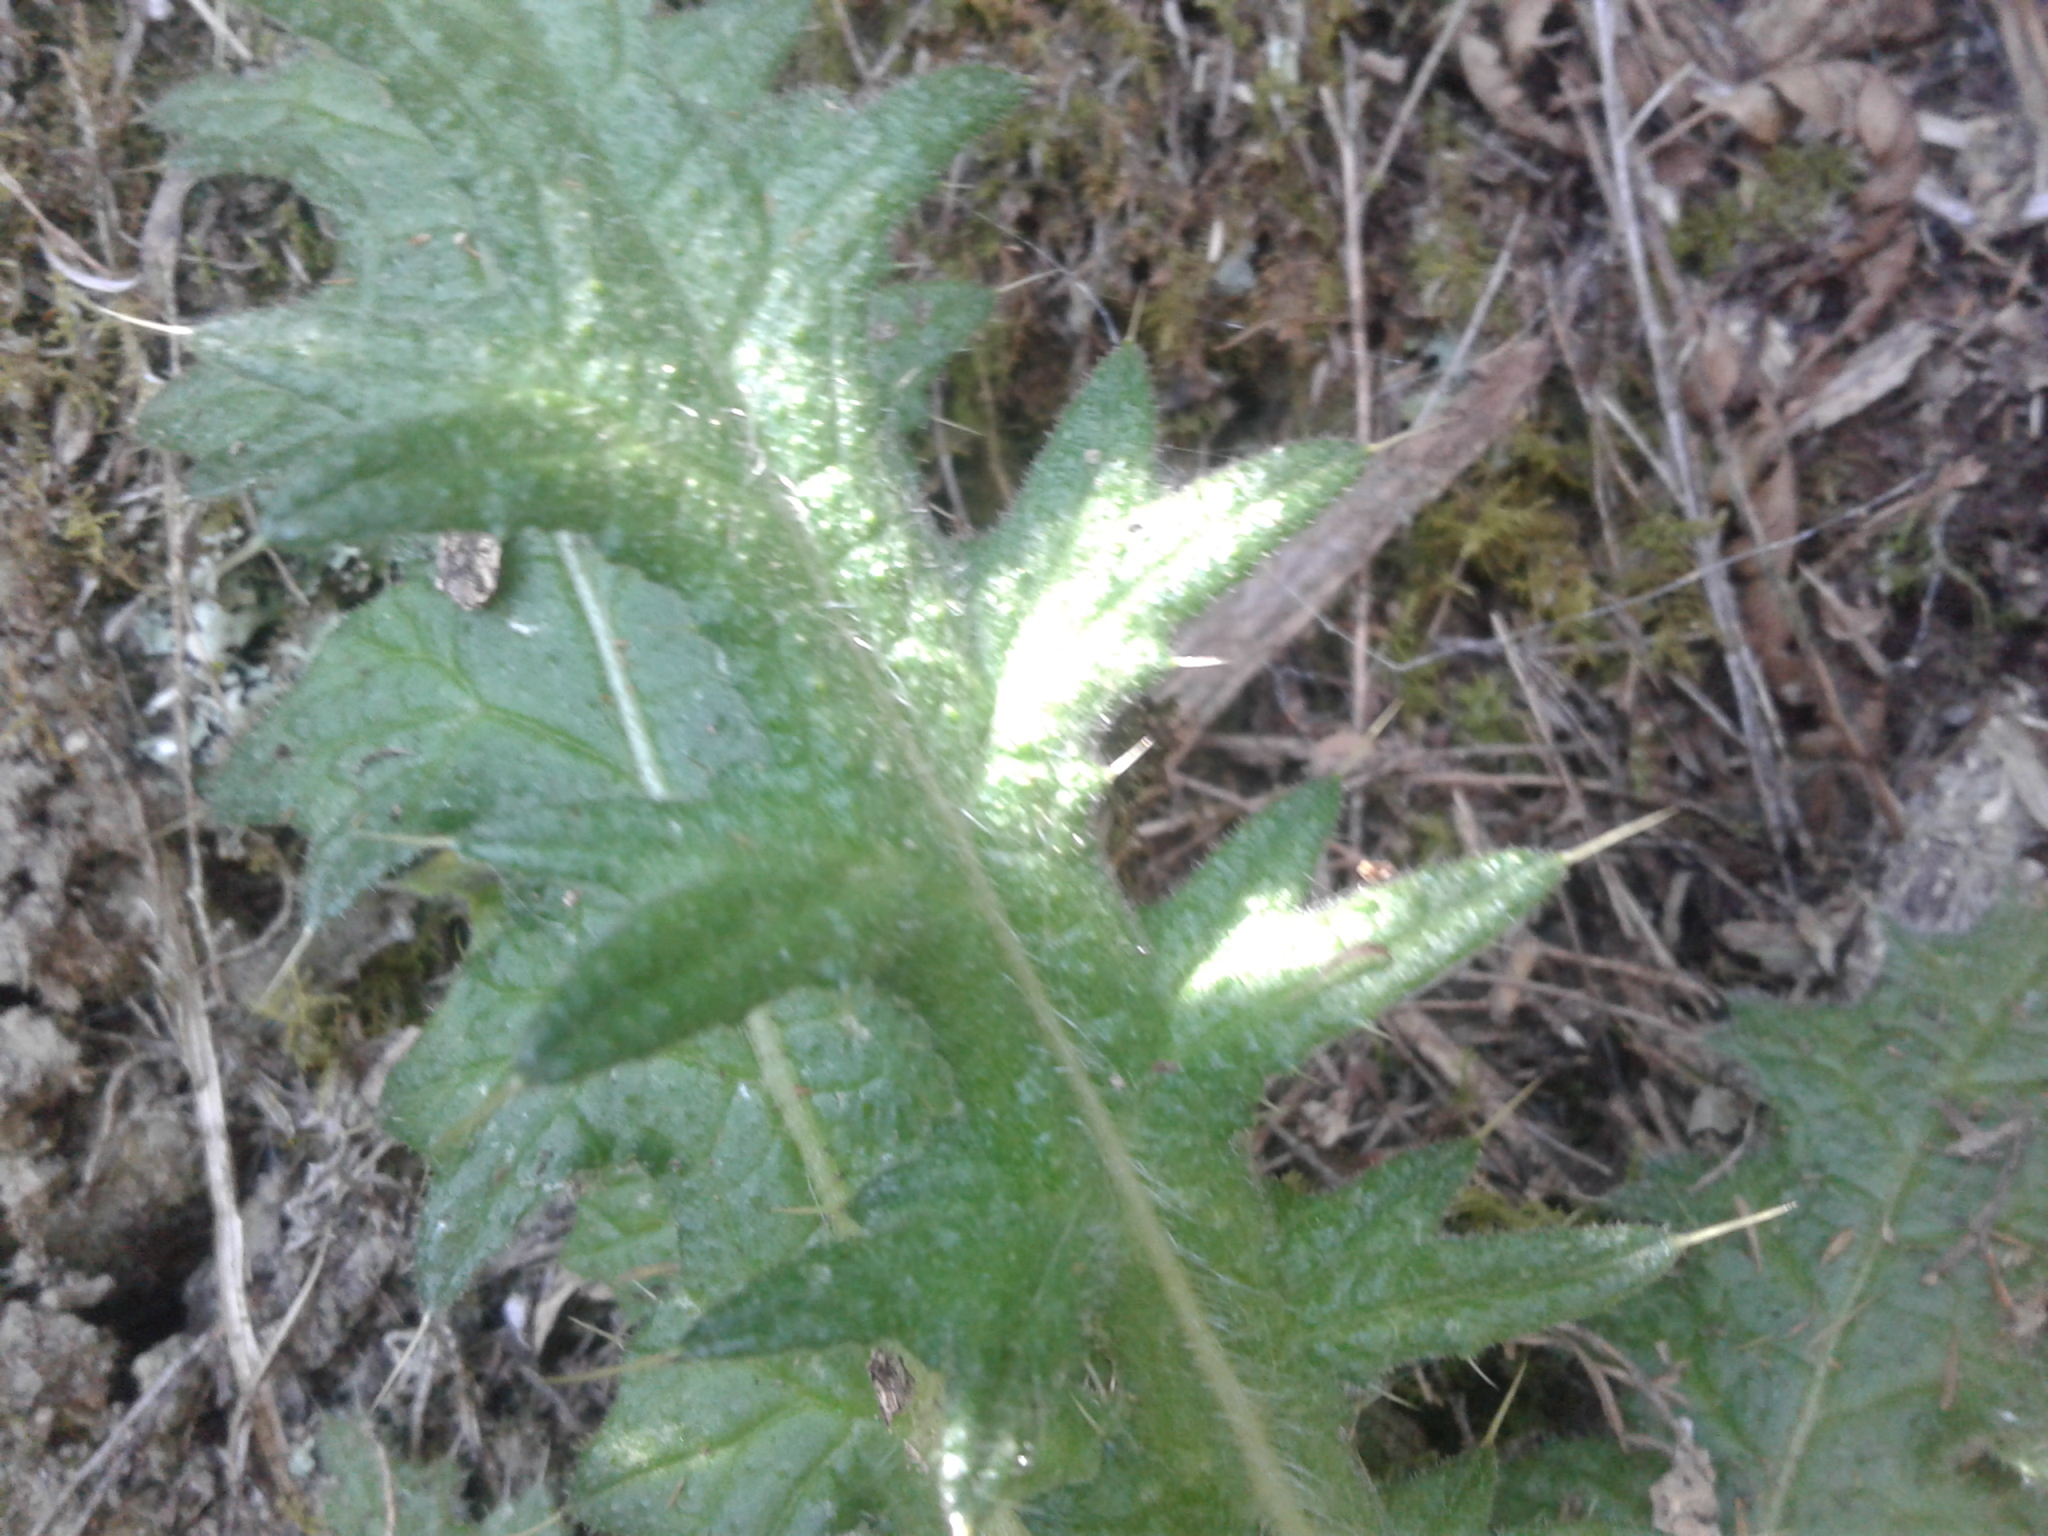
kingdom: Plantae
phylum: Tracheophyta
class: Magnoliopsida
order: Asterales
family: Asteraceae
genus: Cirsium
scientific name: Cirsium vulgare
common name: Bull thistle
